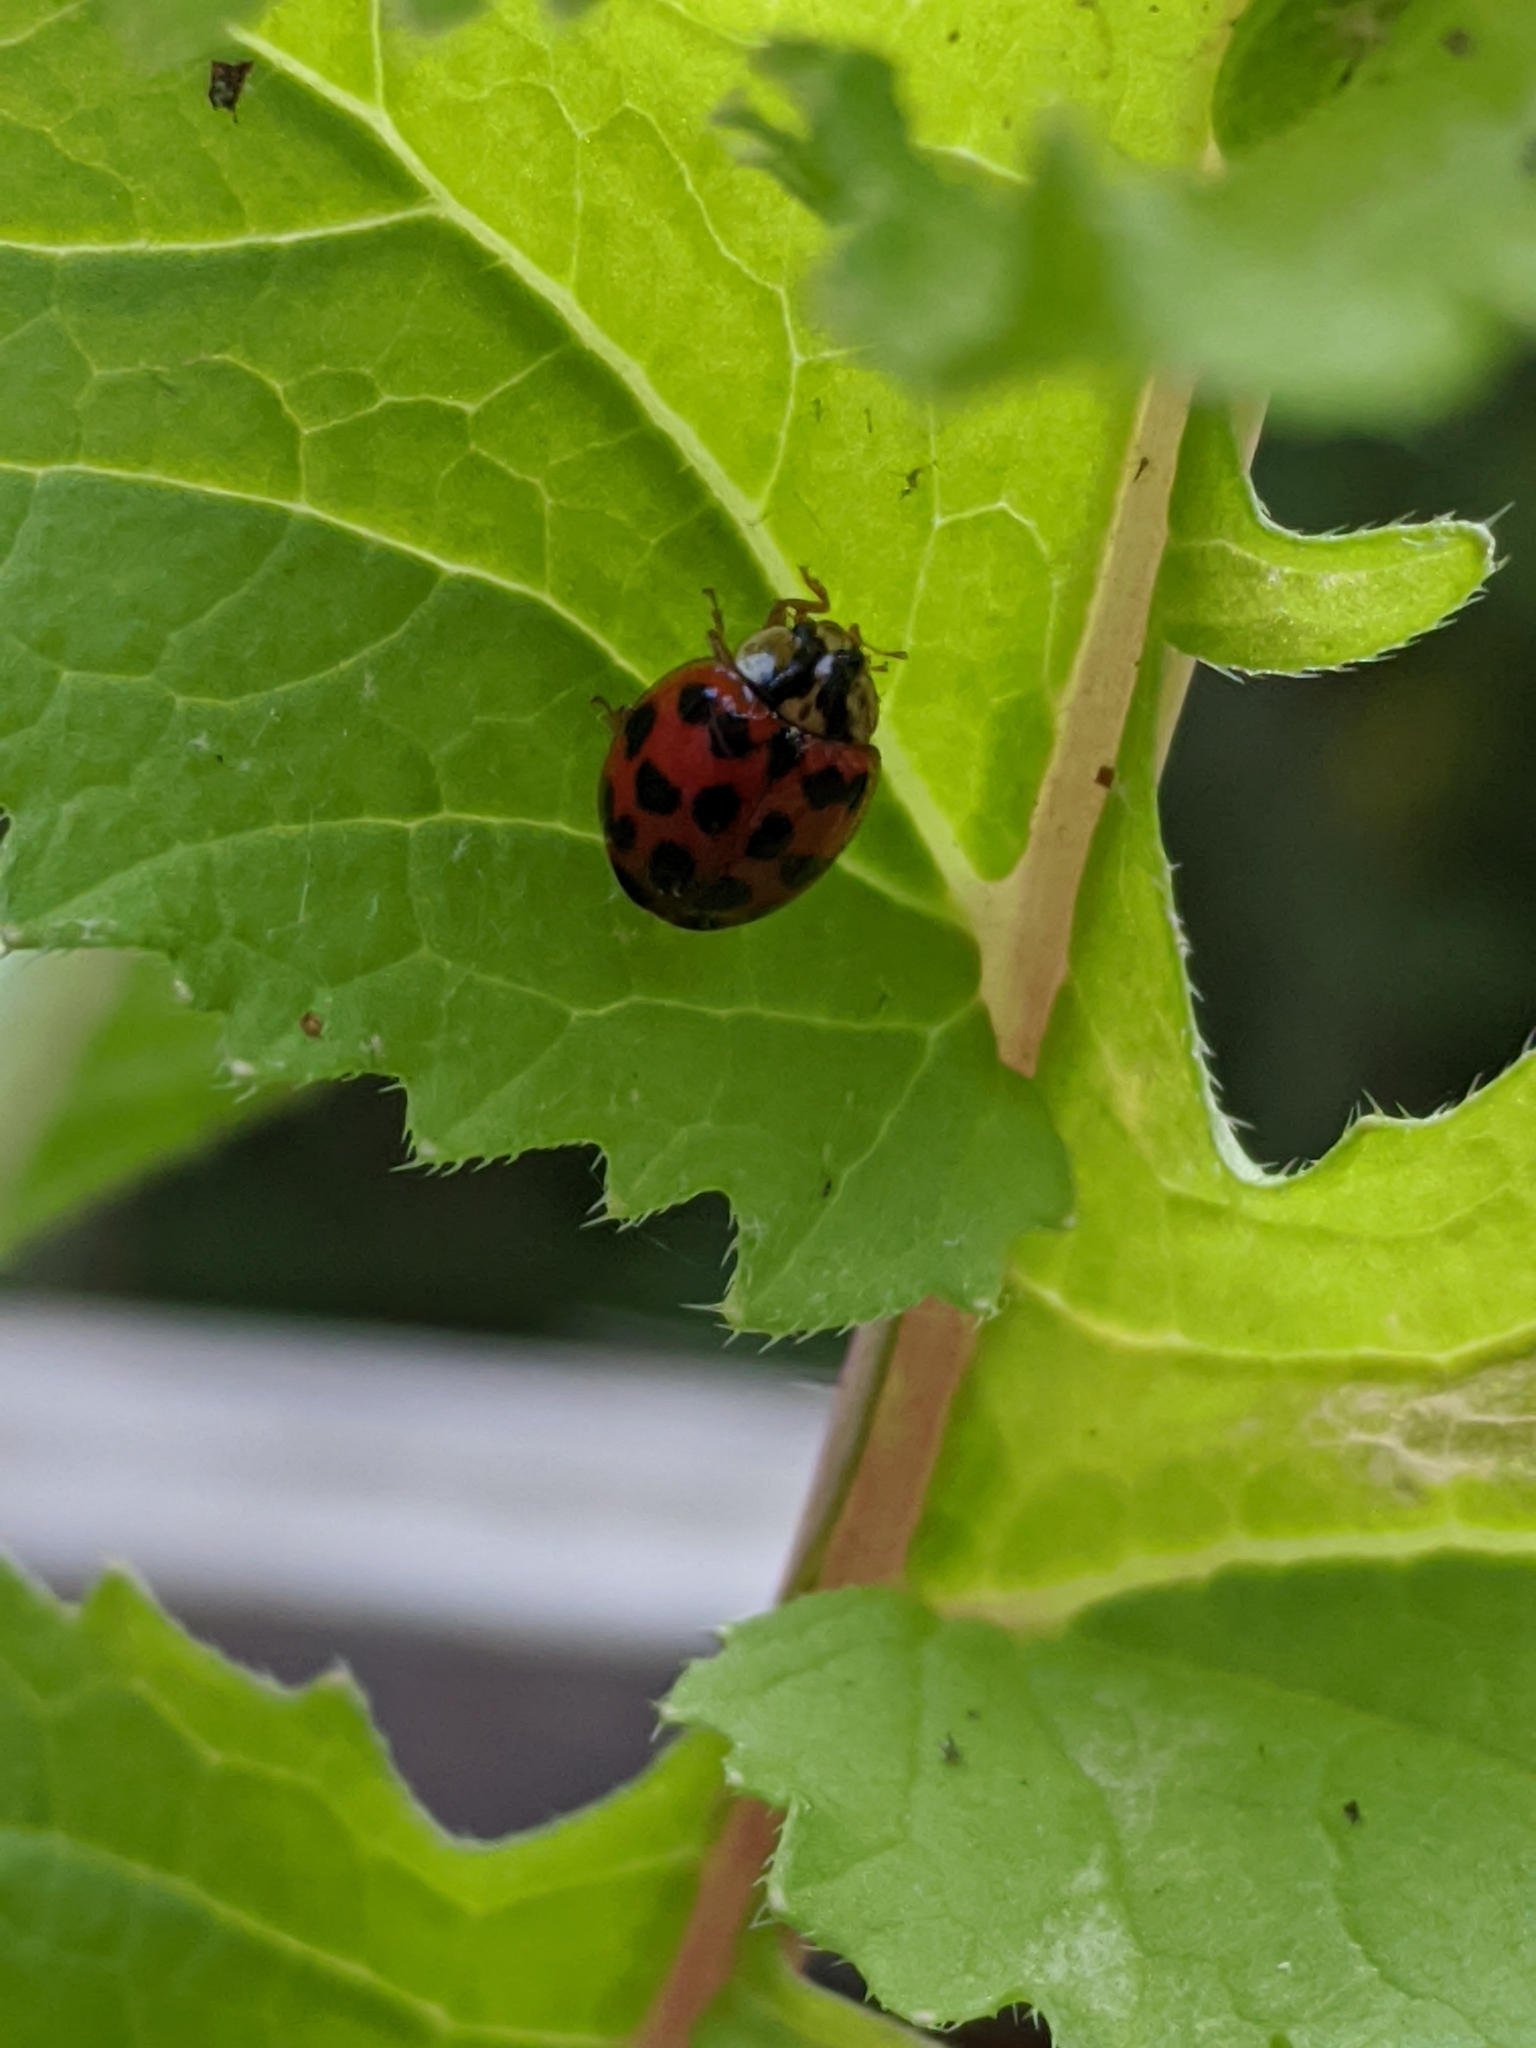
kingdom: Animalia
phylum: Arthropoda
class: Insecta
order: Coleoptera
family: Coccinellidae
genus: Harmonia
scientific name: Harmonia axyridis
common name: Harlequin ladybird
